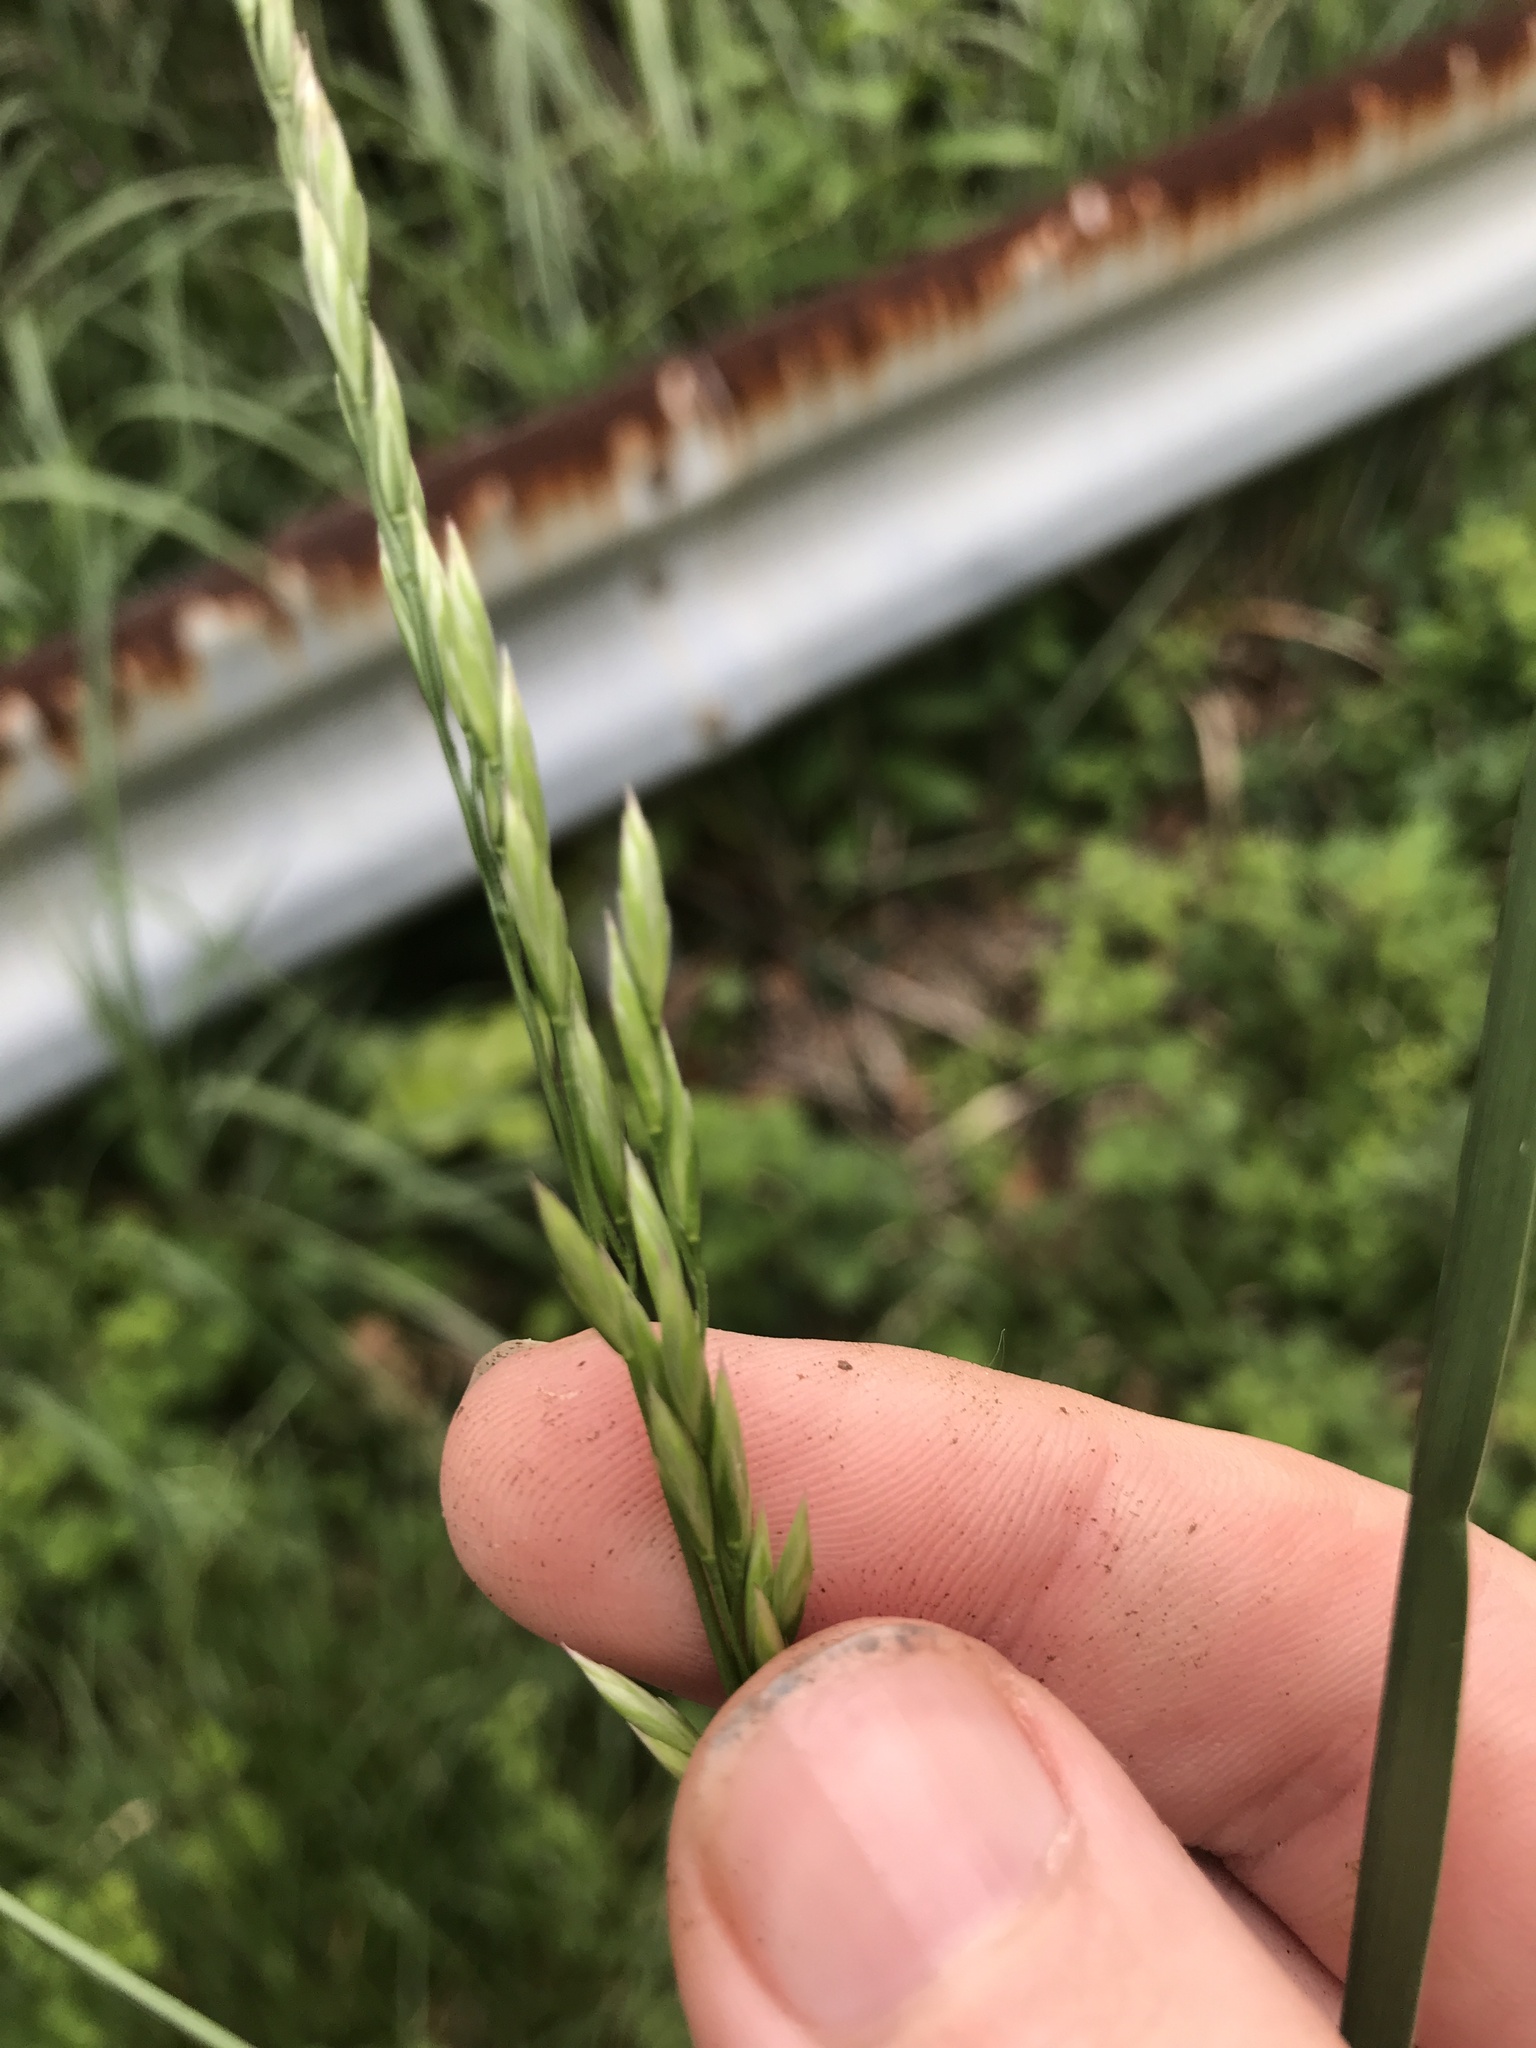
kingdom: Plantae
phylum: Tracheophyta
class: Liliopsida
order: Poales
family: Poaceae
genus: Lolium
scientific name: Lolium arundinaceum
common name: Reed fescue
